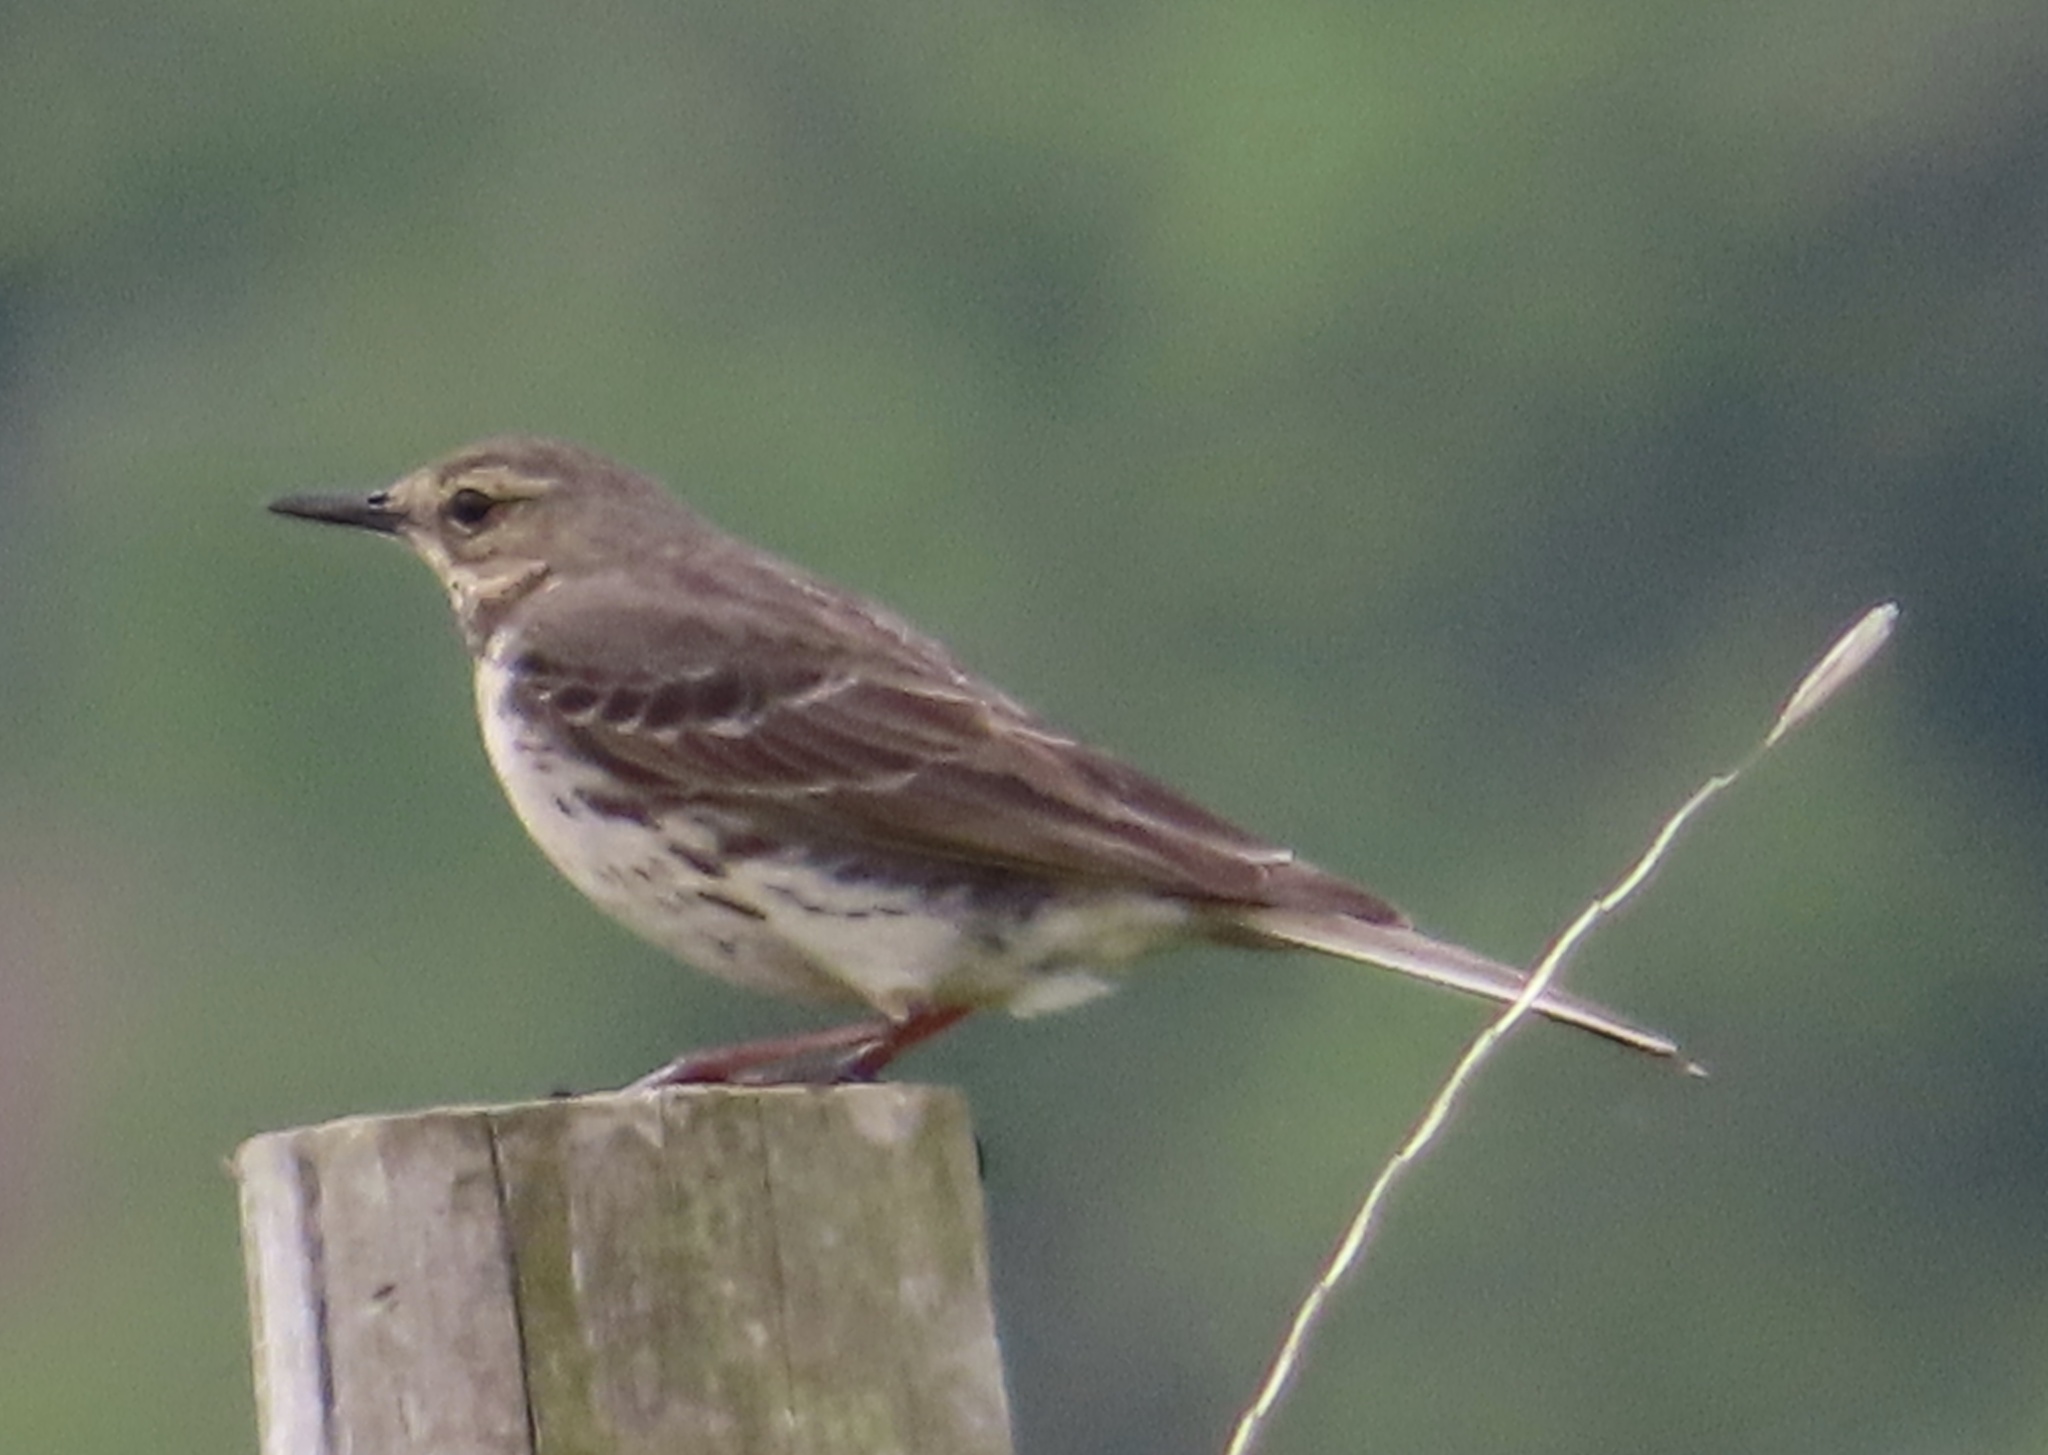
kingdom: Animalia
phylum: Chordata
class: Aves
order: Passeriformes
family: Motacillidae
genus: Anthus
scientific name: Anthus petrosus
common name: Eurasian rock pipit
